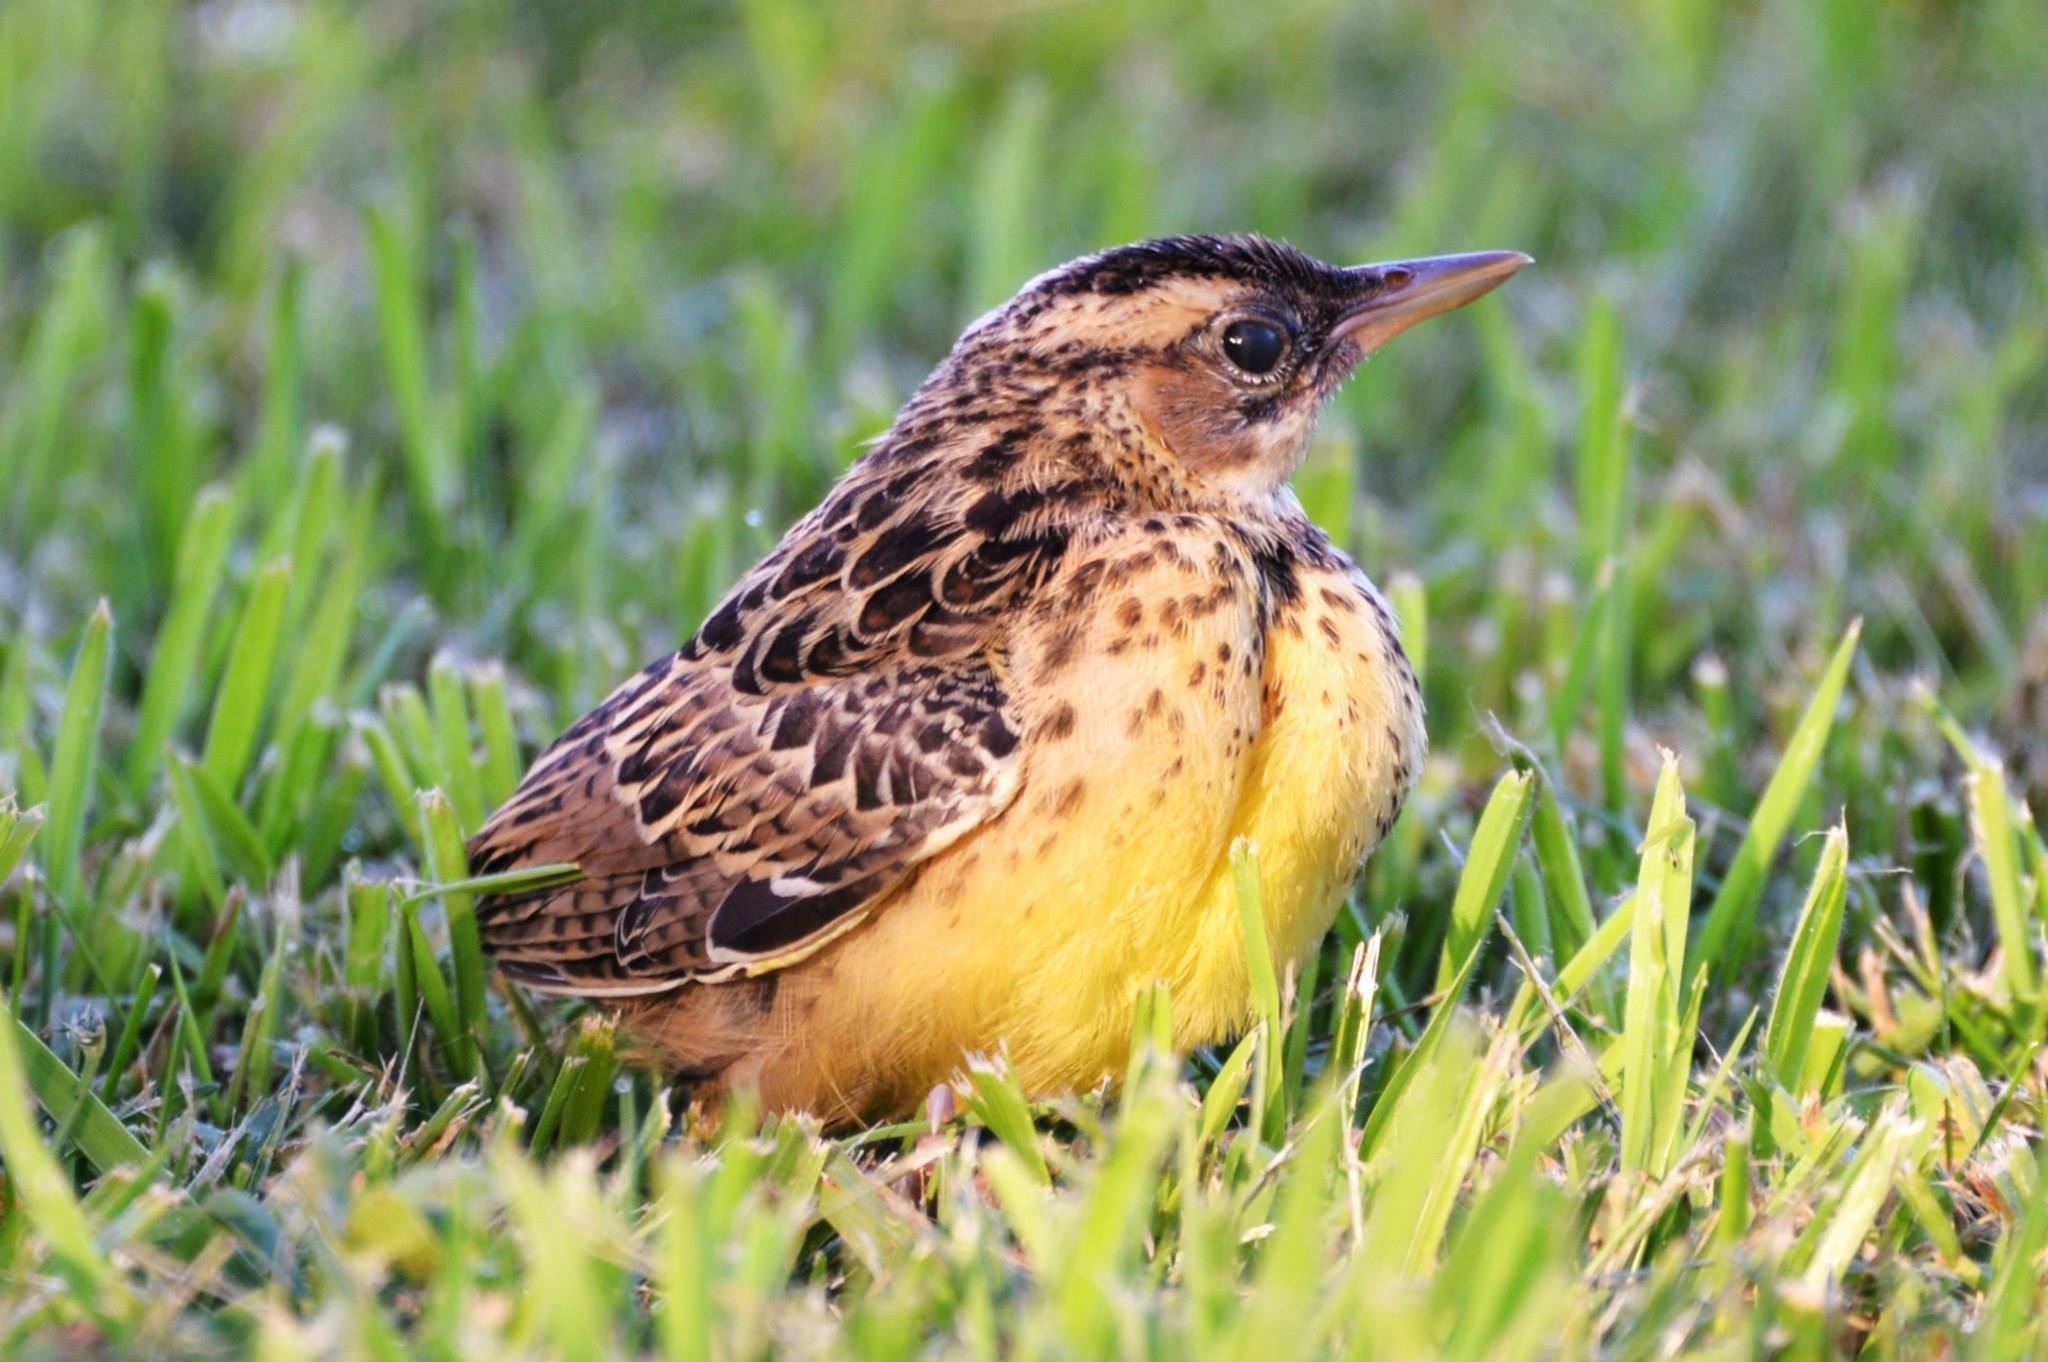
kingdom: Animalia
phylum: Chordata
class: Aves
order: Passeriformes
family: Icteridae
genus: Sturnella
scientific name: Sturnella magna
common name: Eastern meadowlark
